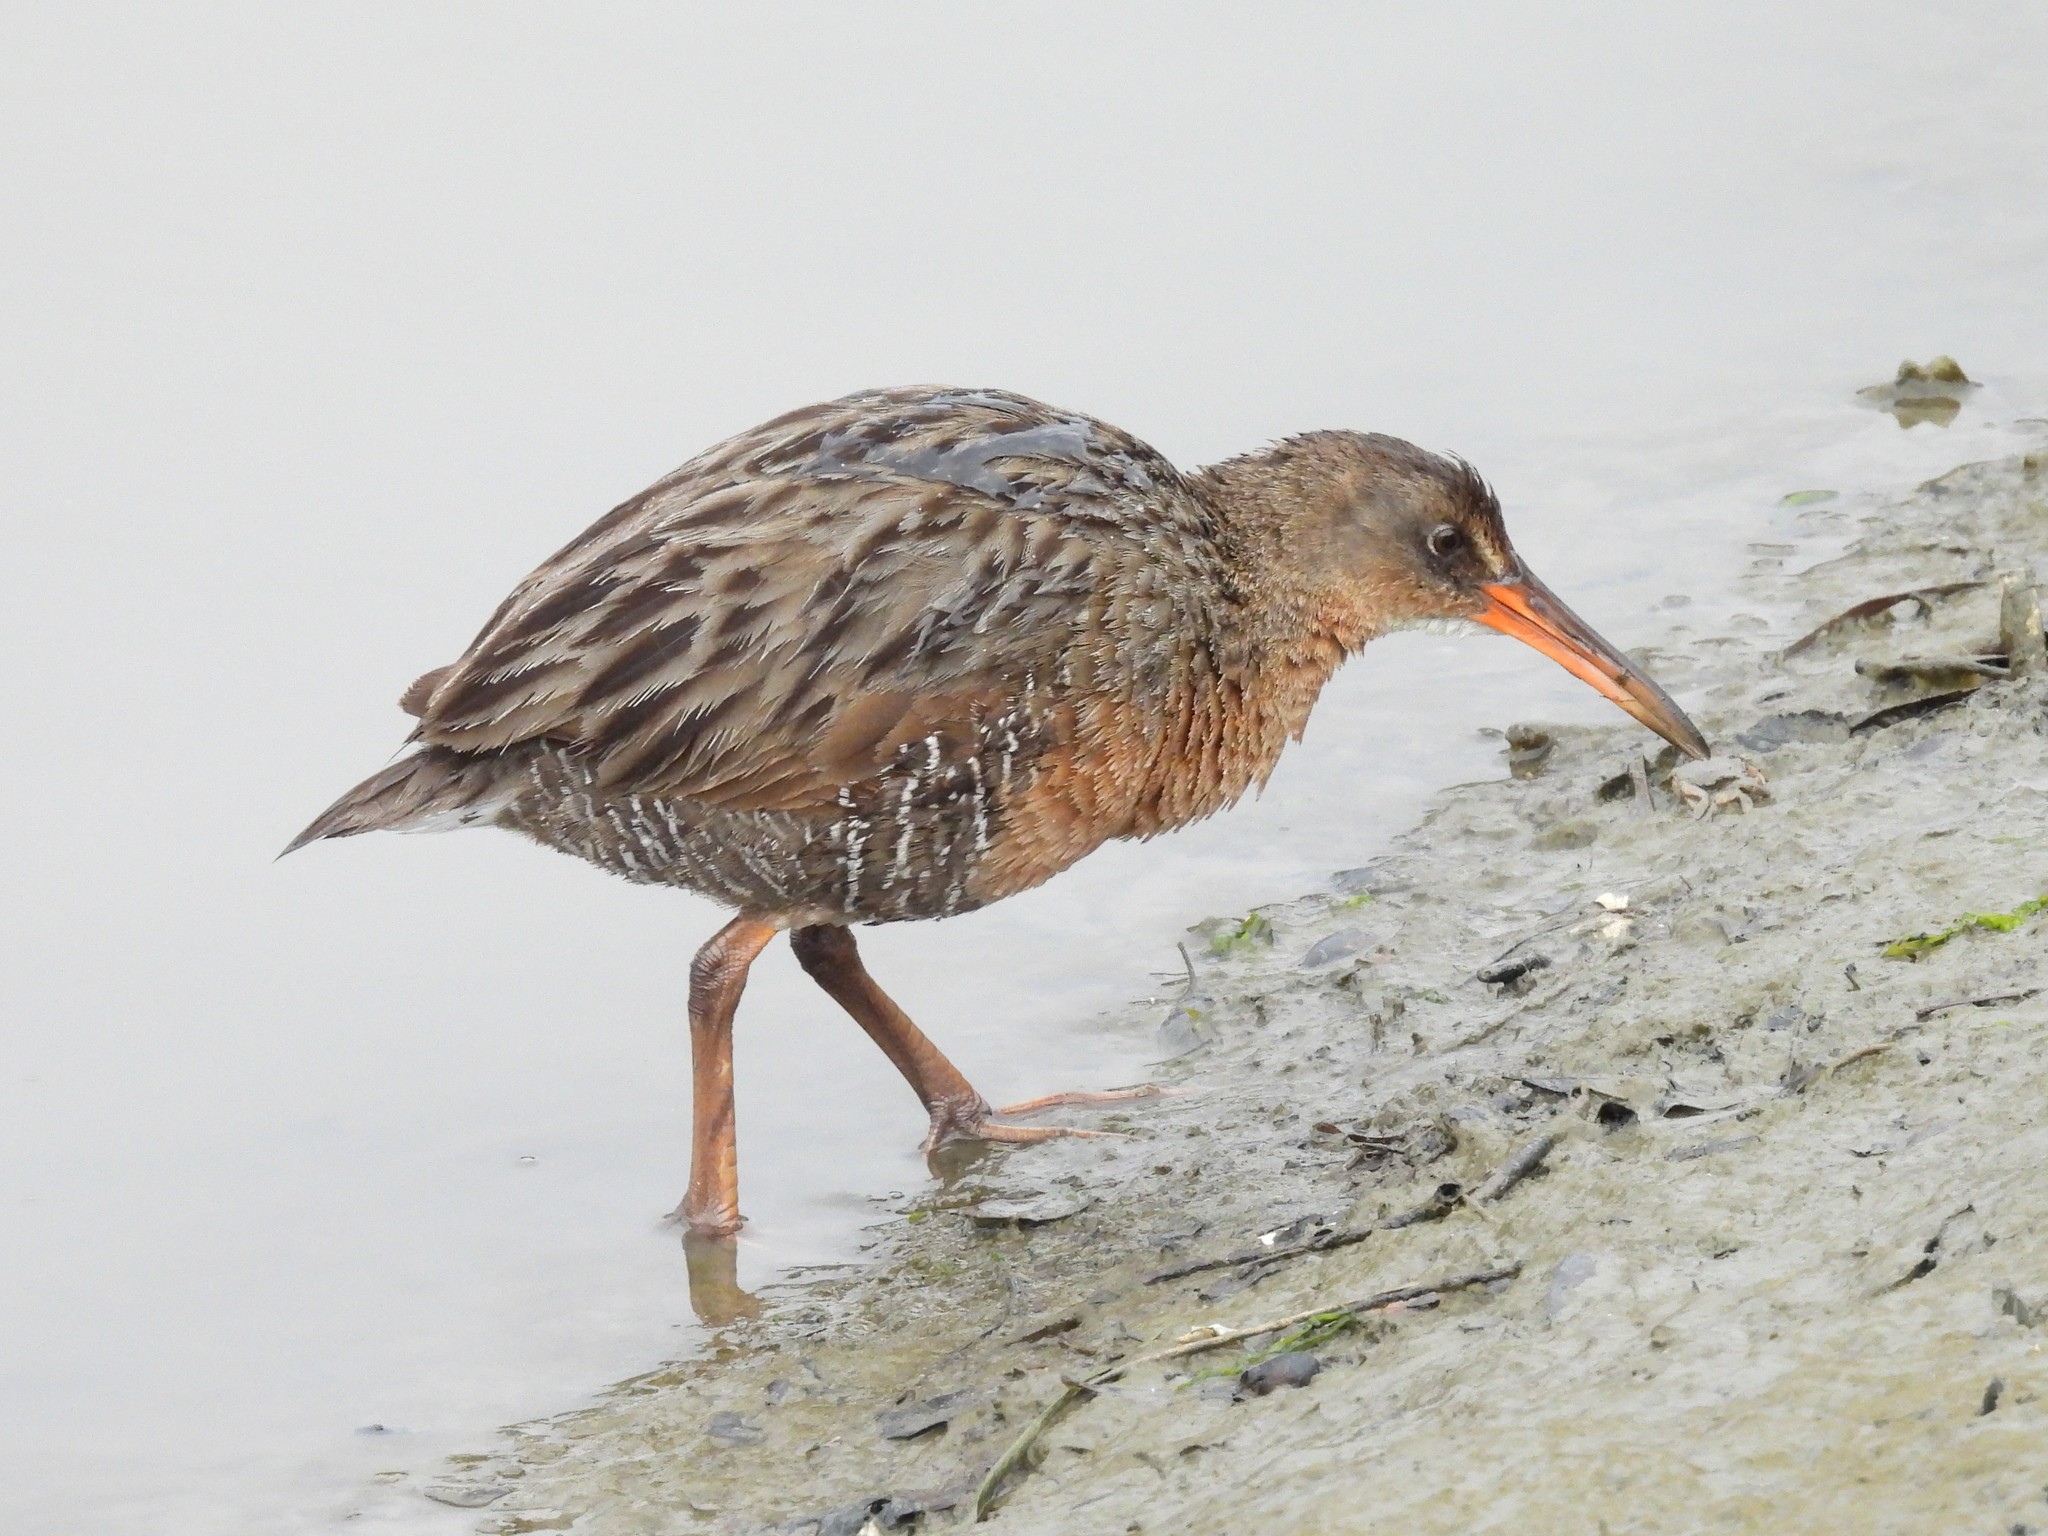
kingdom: Animalia
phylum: Chordata
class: Aves
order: Gruiformes
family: Rallidae
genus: Rallus
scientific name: Rallus obsoletus
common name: Ridgway's rail
